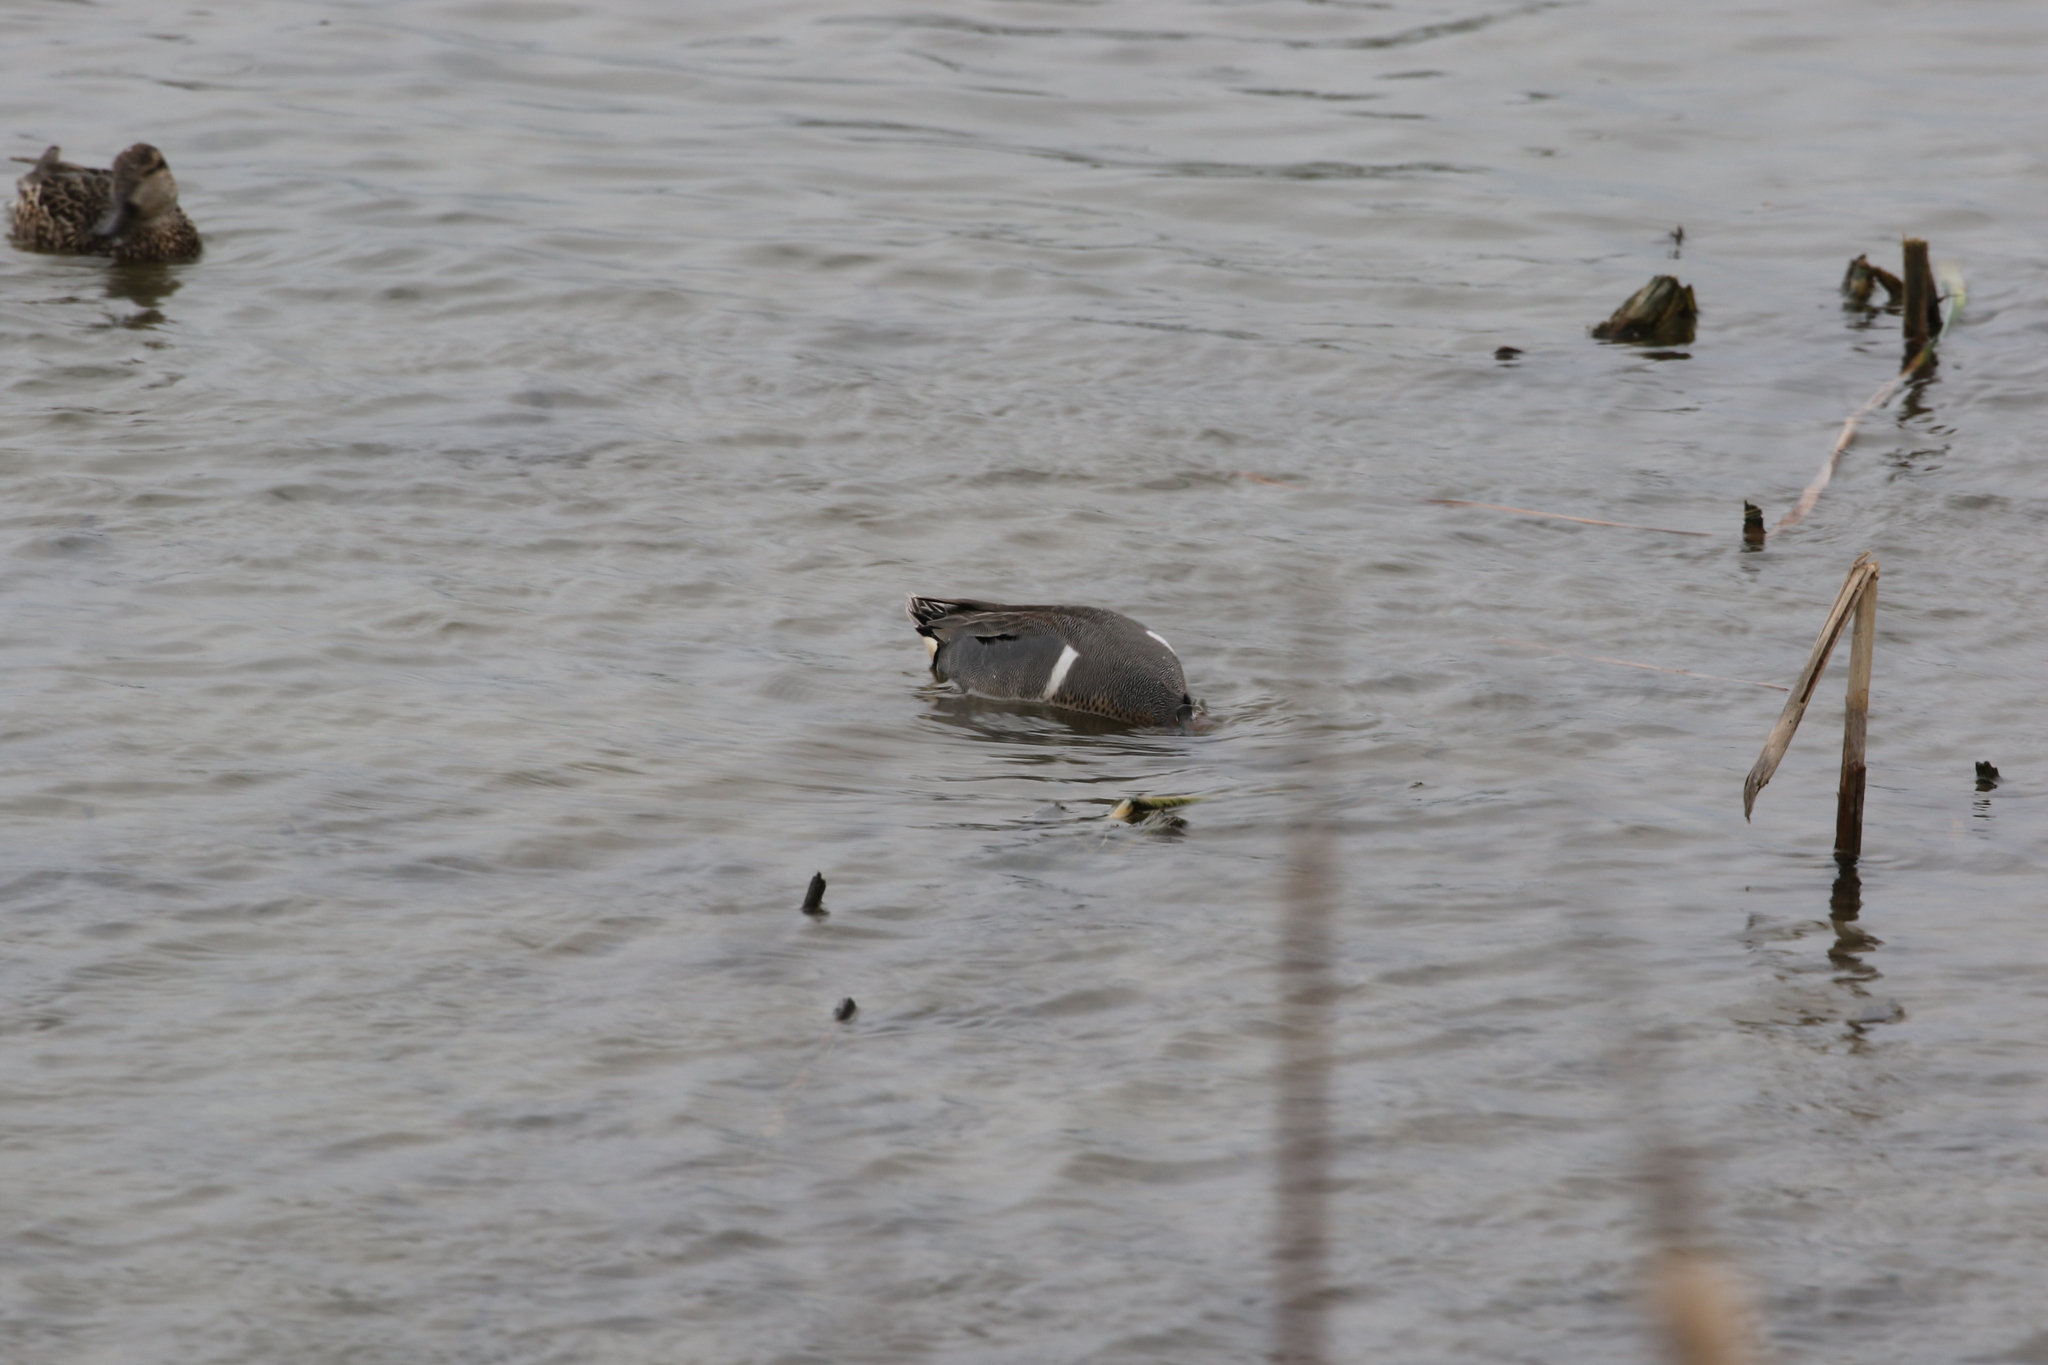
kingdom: Animalia
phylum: Chordata
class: Aves
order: Anseriformes
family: Anatidae
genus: Anas
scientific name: Anas crecca
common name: Eurasian teal
